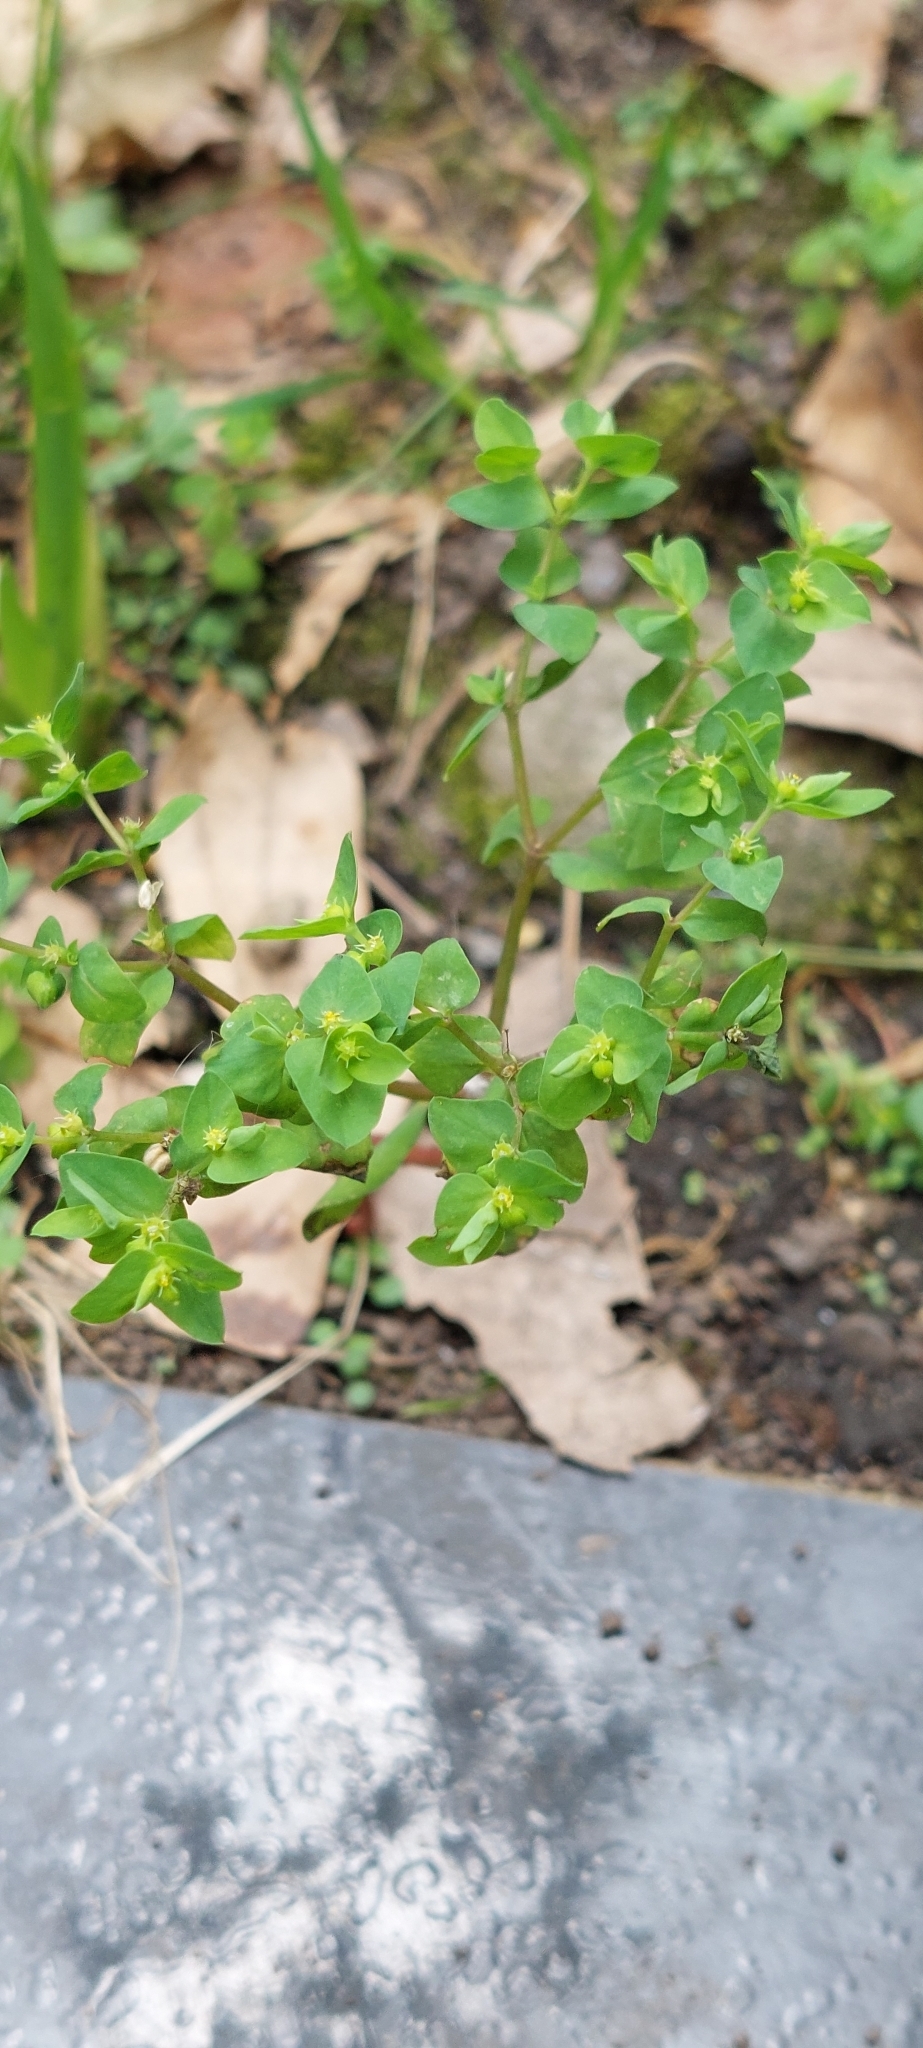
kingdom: Plantae
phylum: Tracheophyta
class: Magnoliopsida
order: Malpighiales
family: Euphorbiaceae
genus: Euphorbia
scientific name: Euphorbia peplus
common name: Petty spurge
